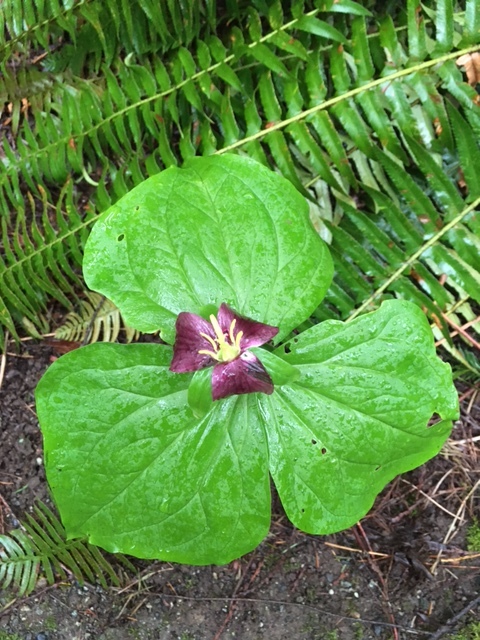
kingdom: Plantae
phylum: Tracheophyta
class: Liliopsida
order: Liliales
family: Melanthiaceae
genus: Trillium
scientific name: Trillium ovatum
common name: Pacific trillium
